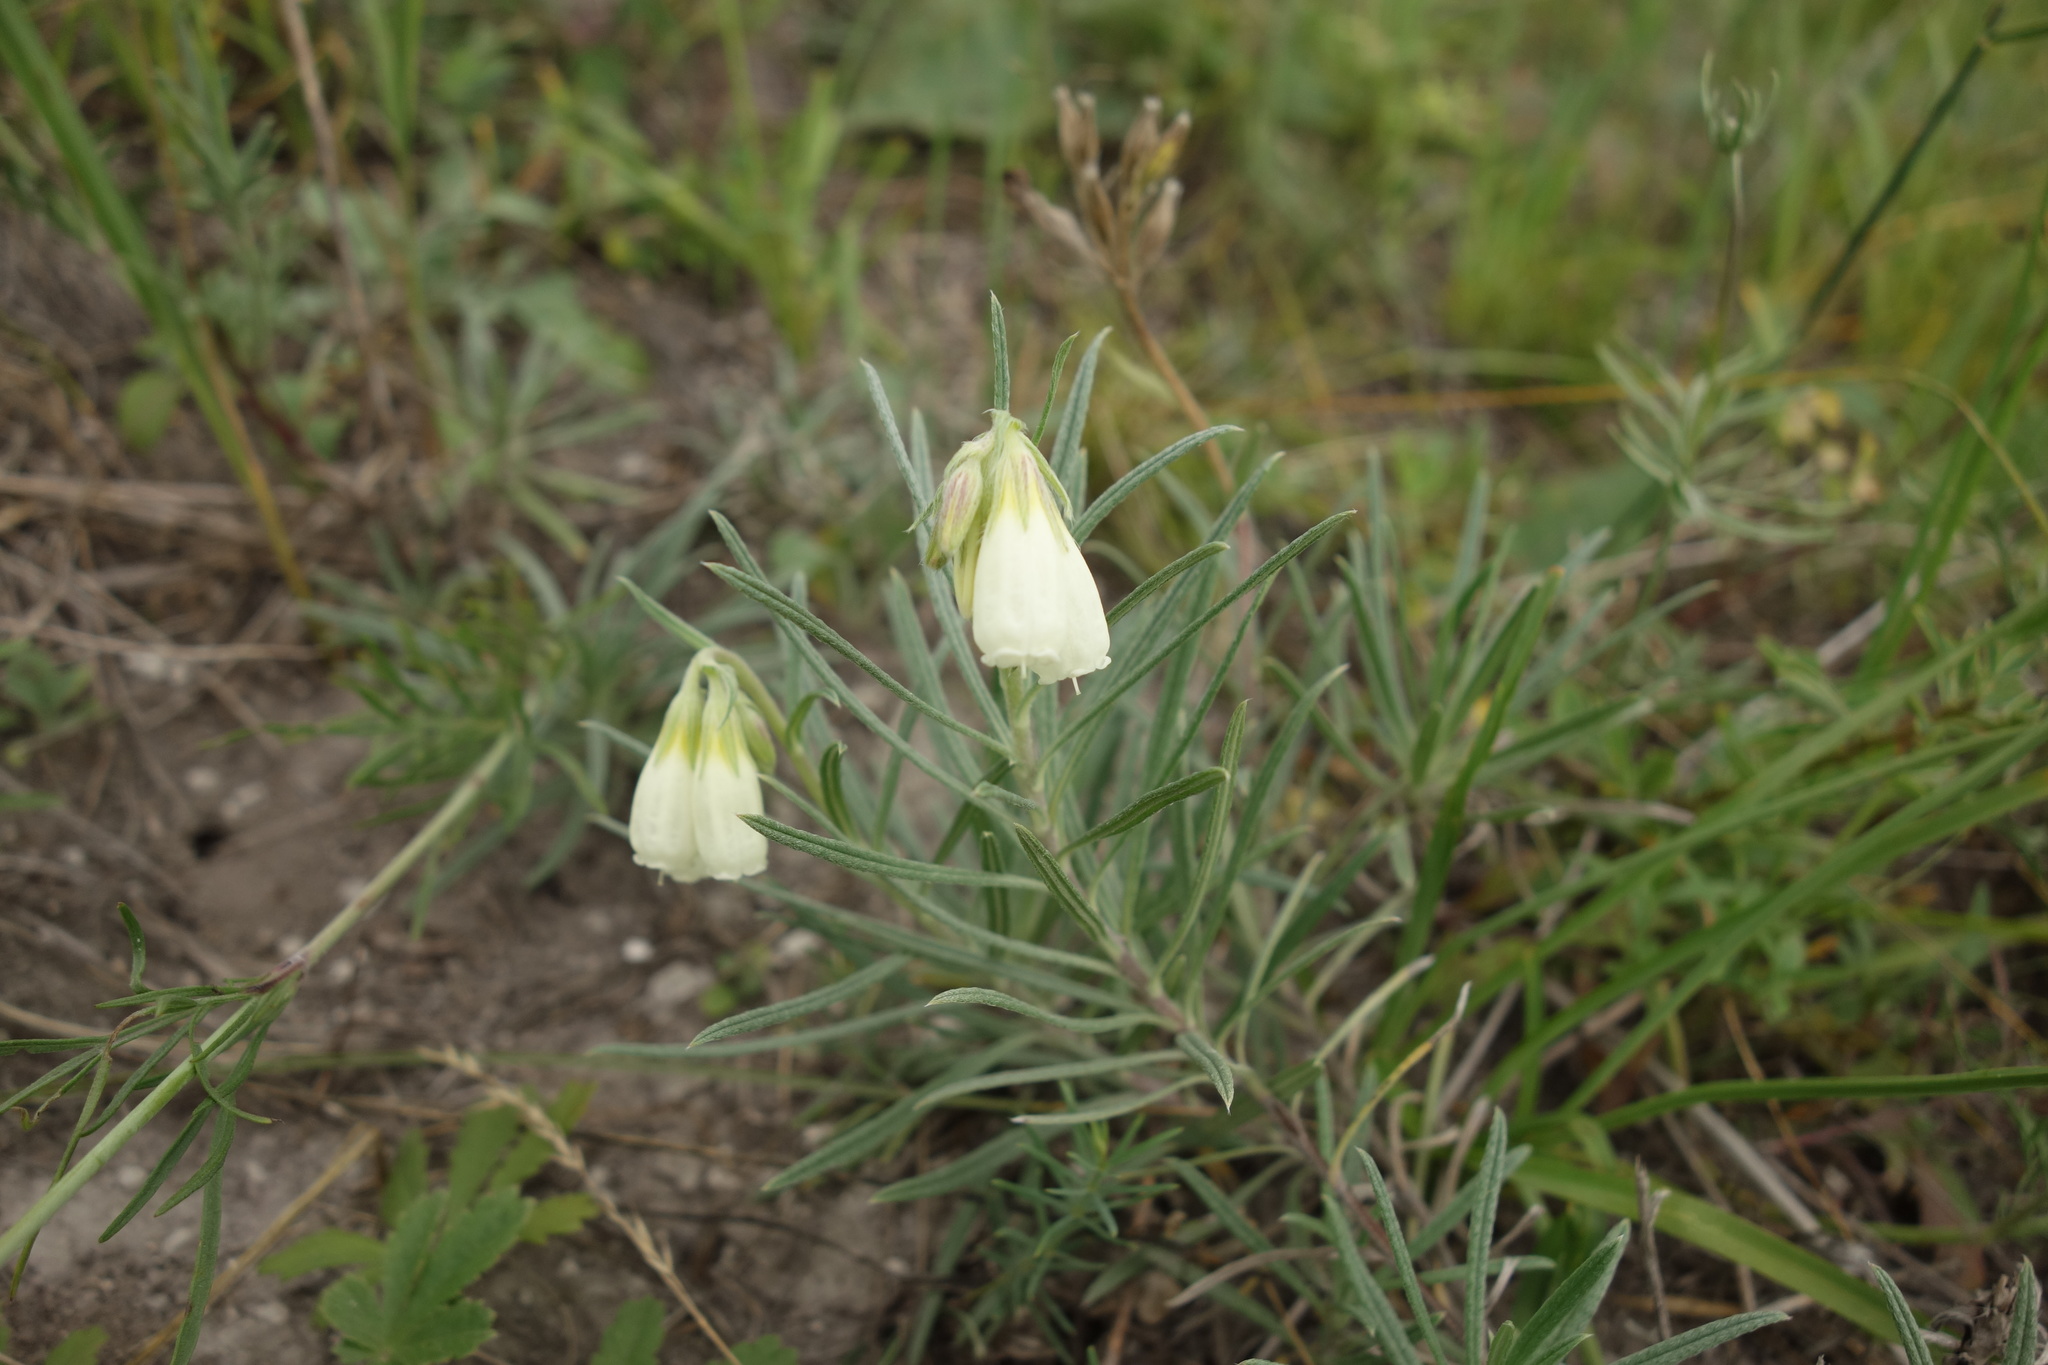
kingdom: Plantae
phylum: Tracheophyta
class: Magnoliopsida
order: Boraginales
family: Boraginaceae
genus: Onosma
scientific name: Onosma simplicissima
